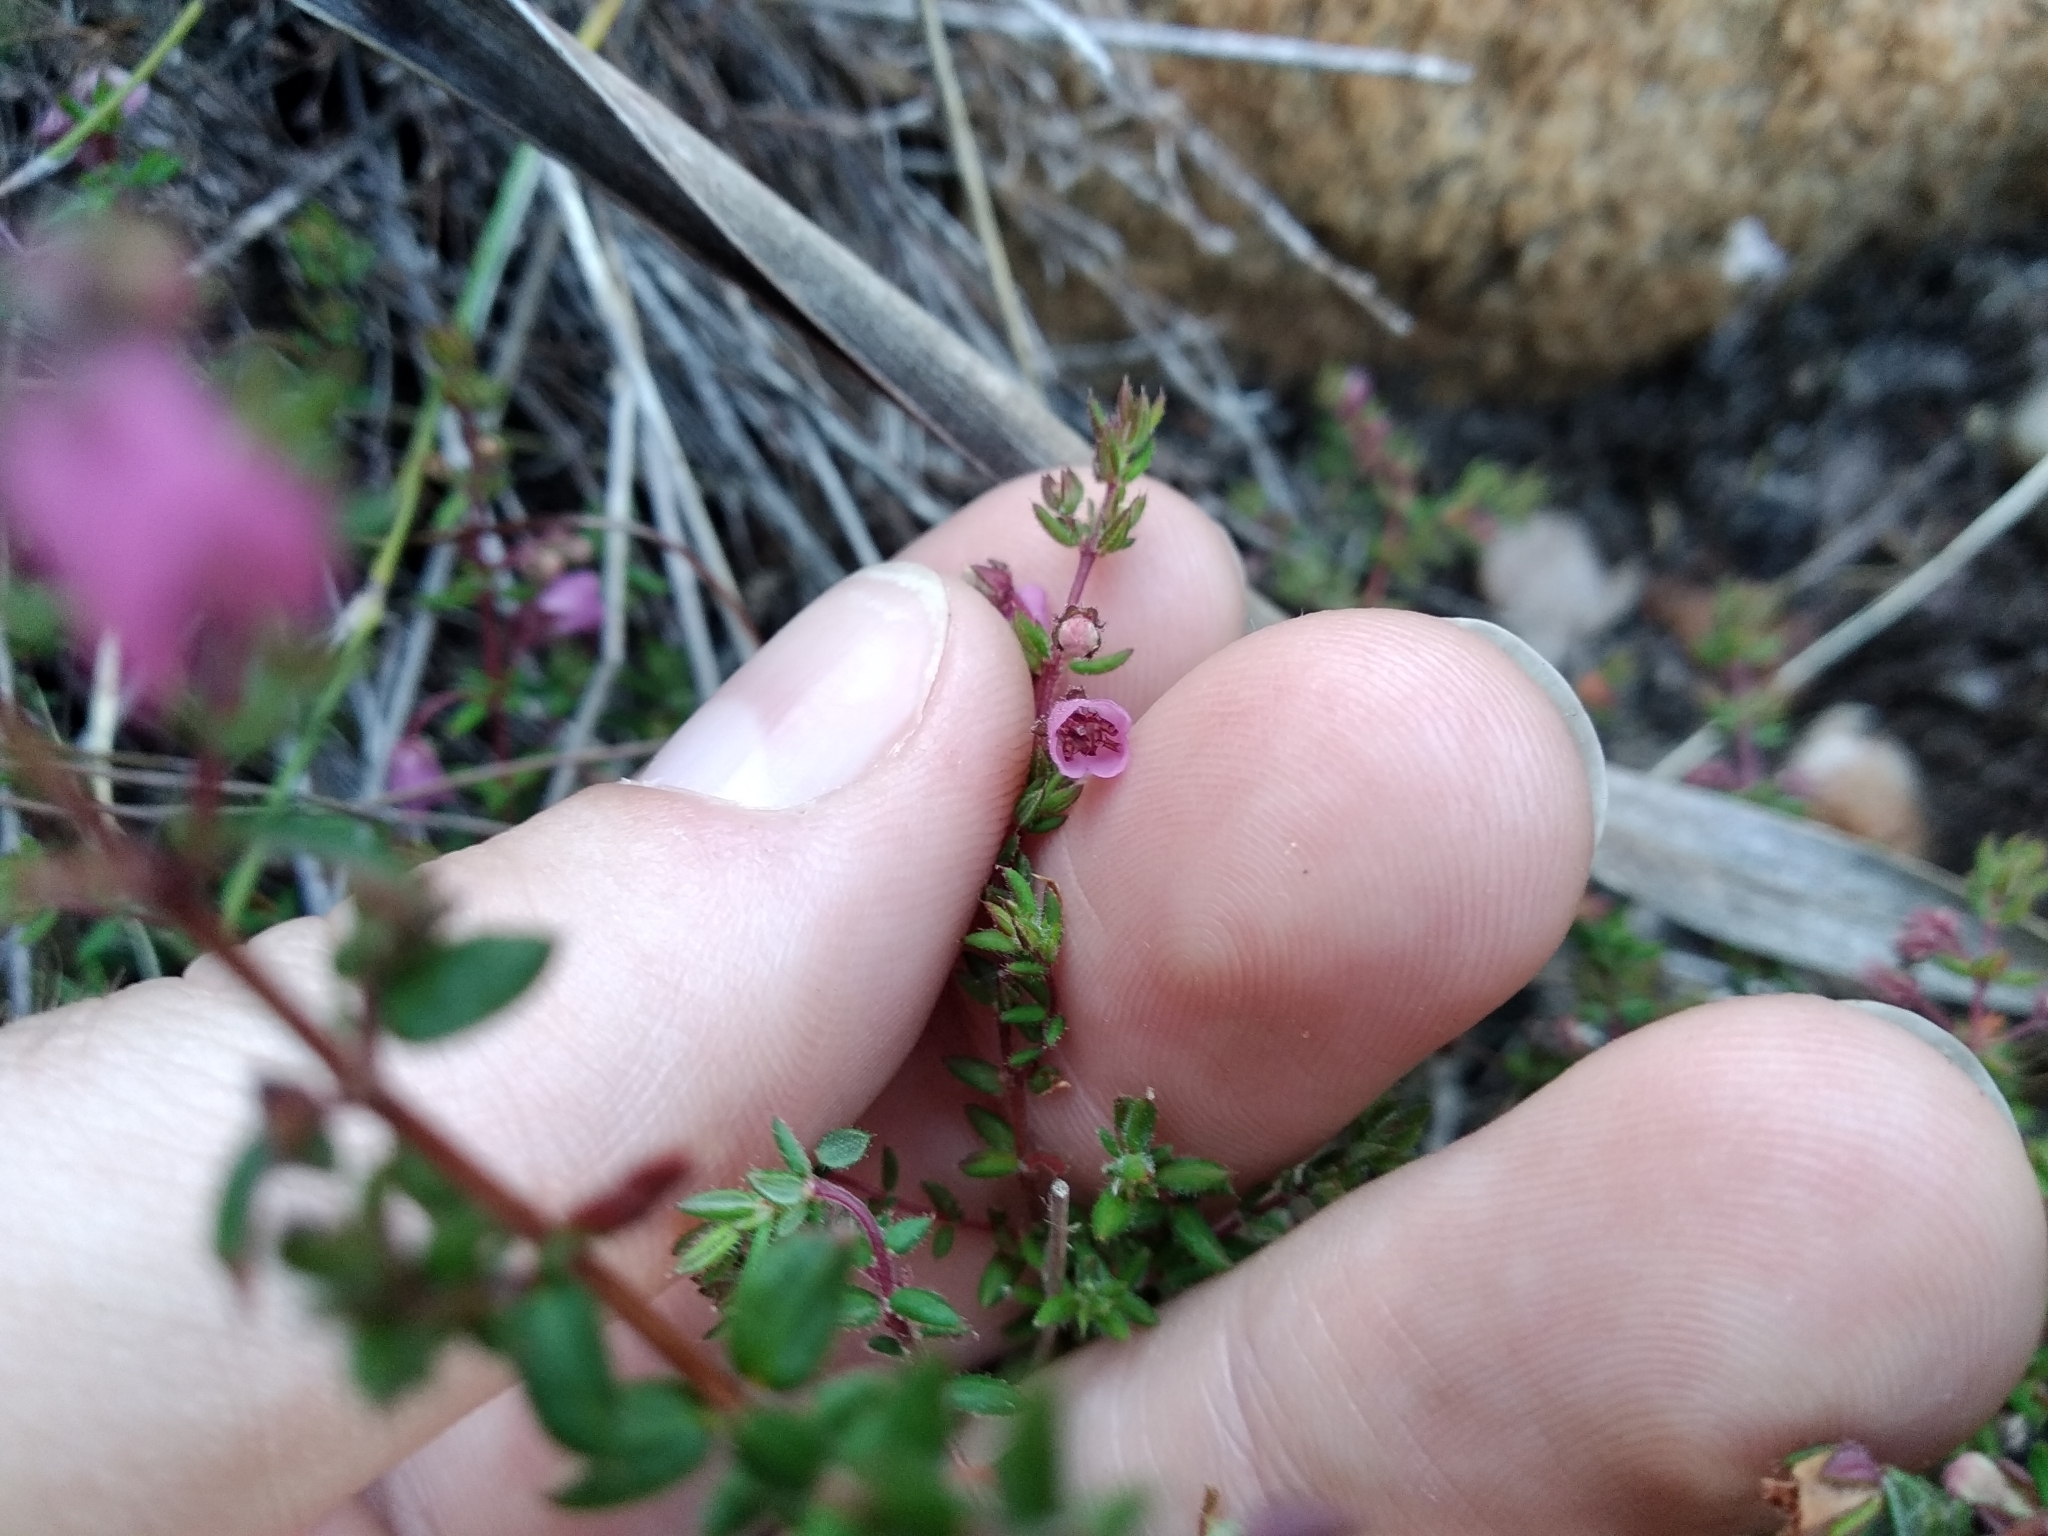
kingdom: Plantae
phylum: Tracheophyta
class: Magnoliopsida
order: Ericales
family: Ericaceae
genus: Erica
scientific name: Erica planifolia
